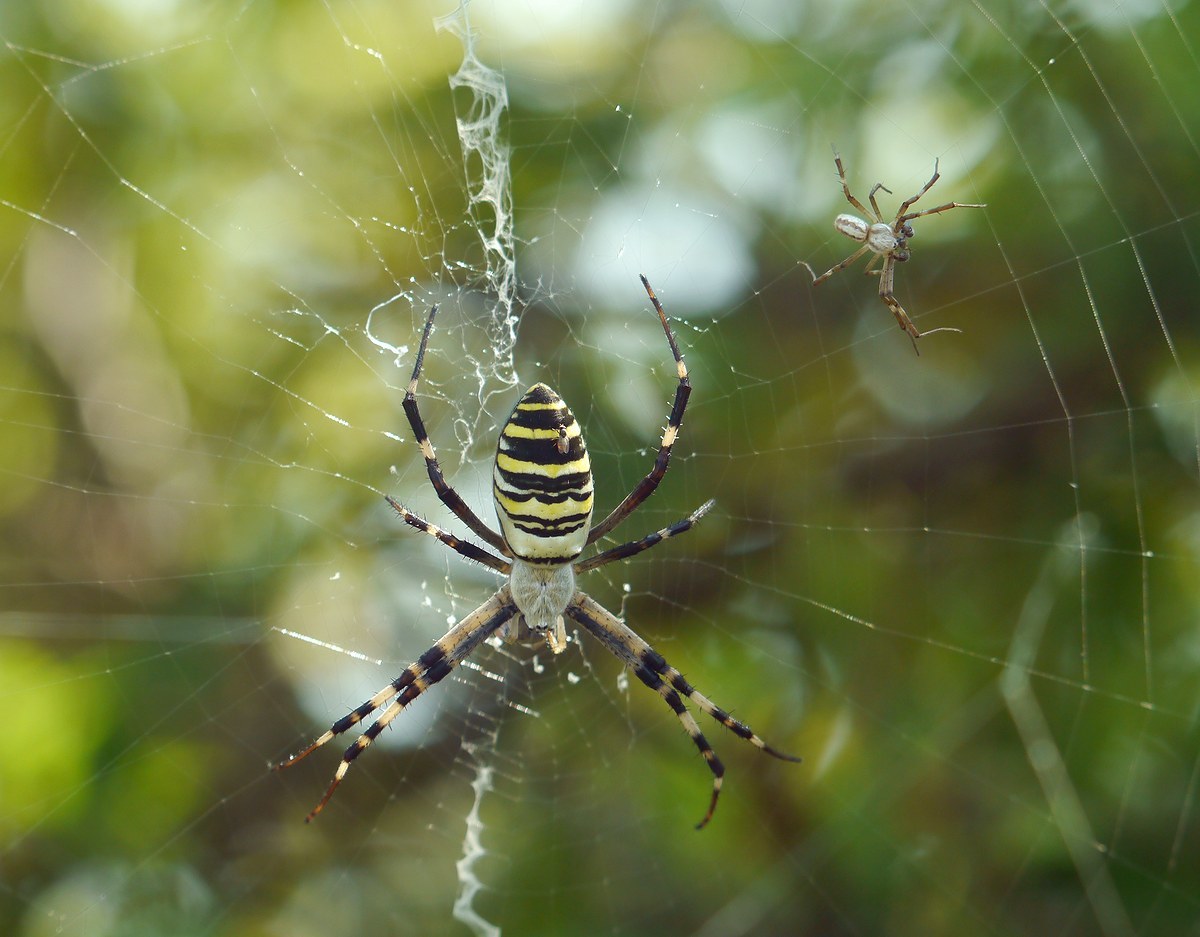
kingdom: Animalia
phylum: Arthropoda
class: Arachnida
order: Araneae
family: Araneidae
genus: Argiope
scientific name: Argiope bruennichi
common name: Wasp spider
